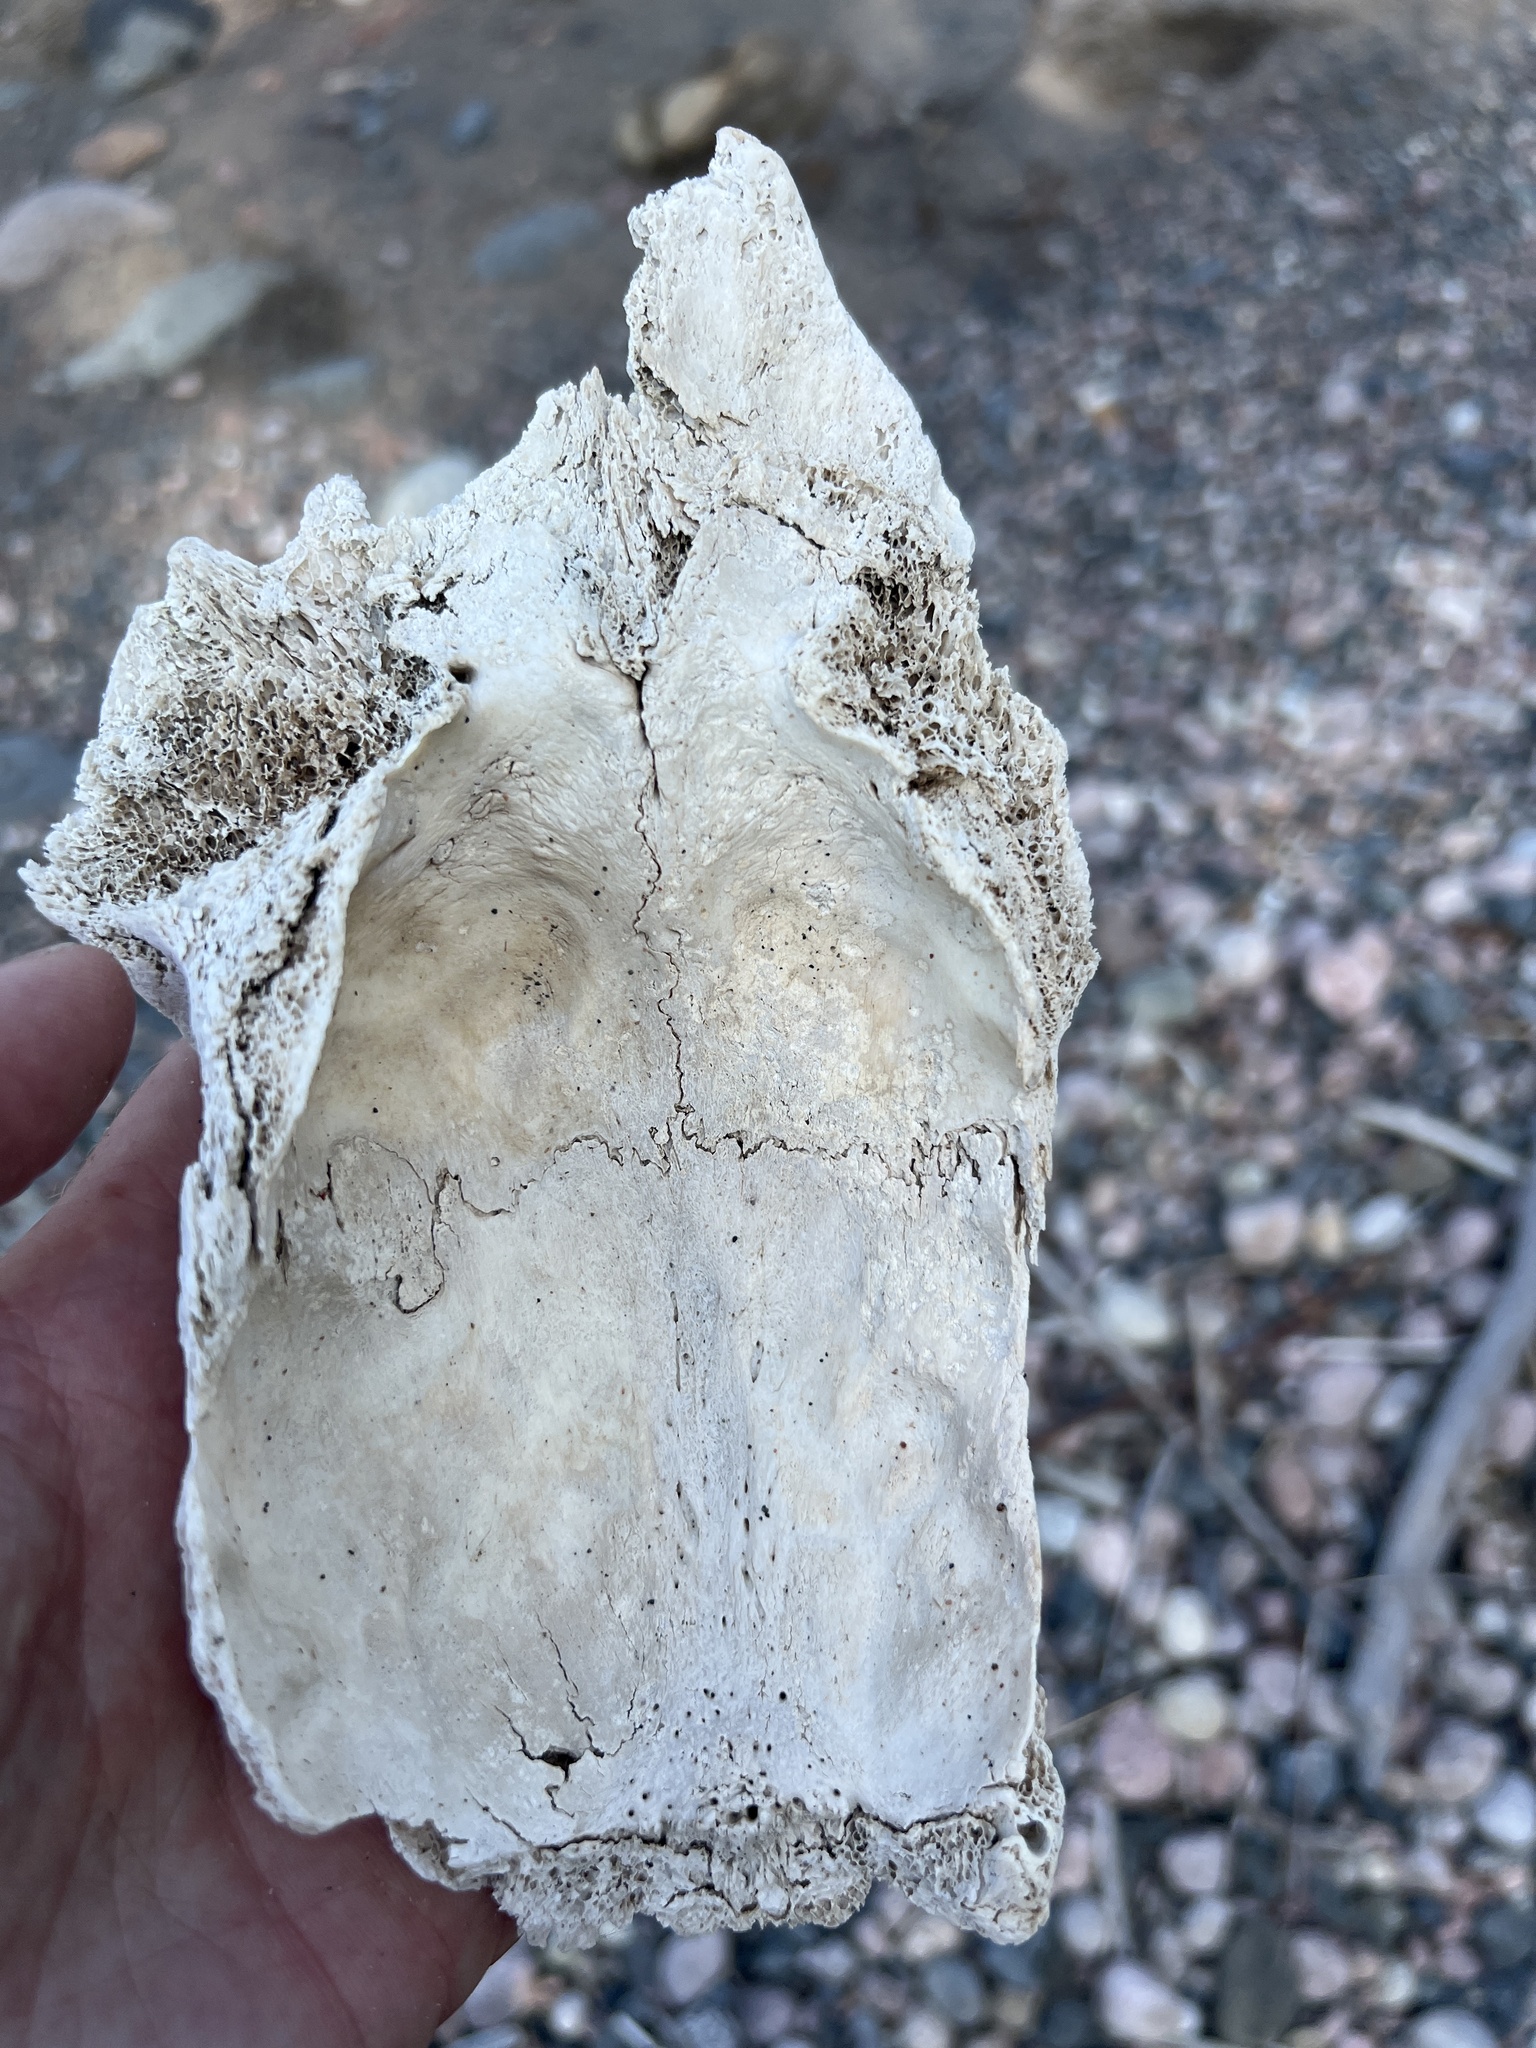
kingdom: Animalia
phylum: Chordata
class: Mammalia
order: Artiodactyla
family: Cervidae
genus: Alces
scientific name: Alces alces
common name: Moose
